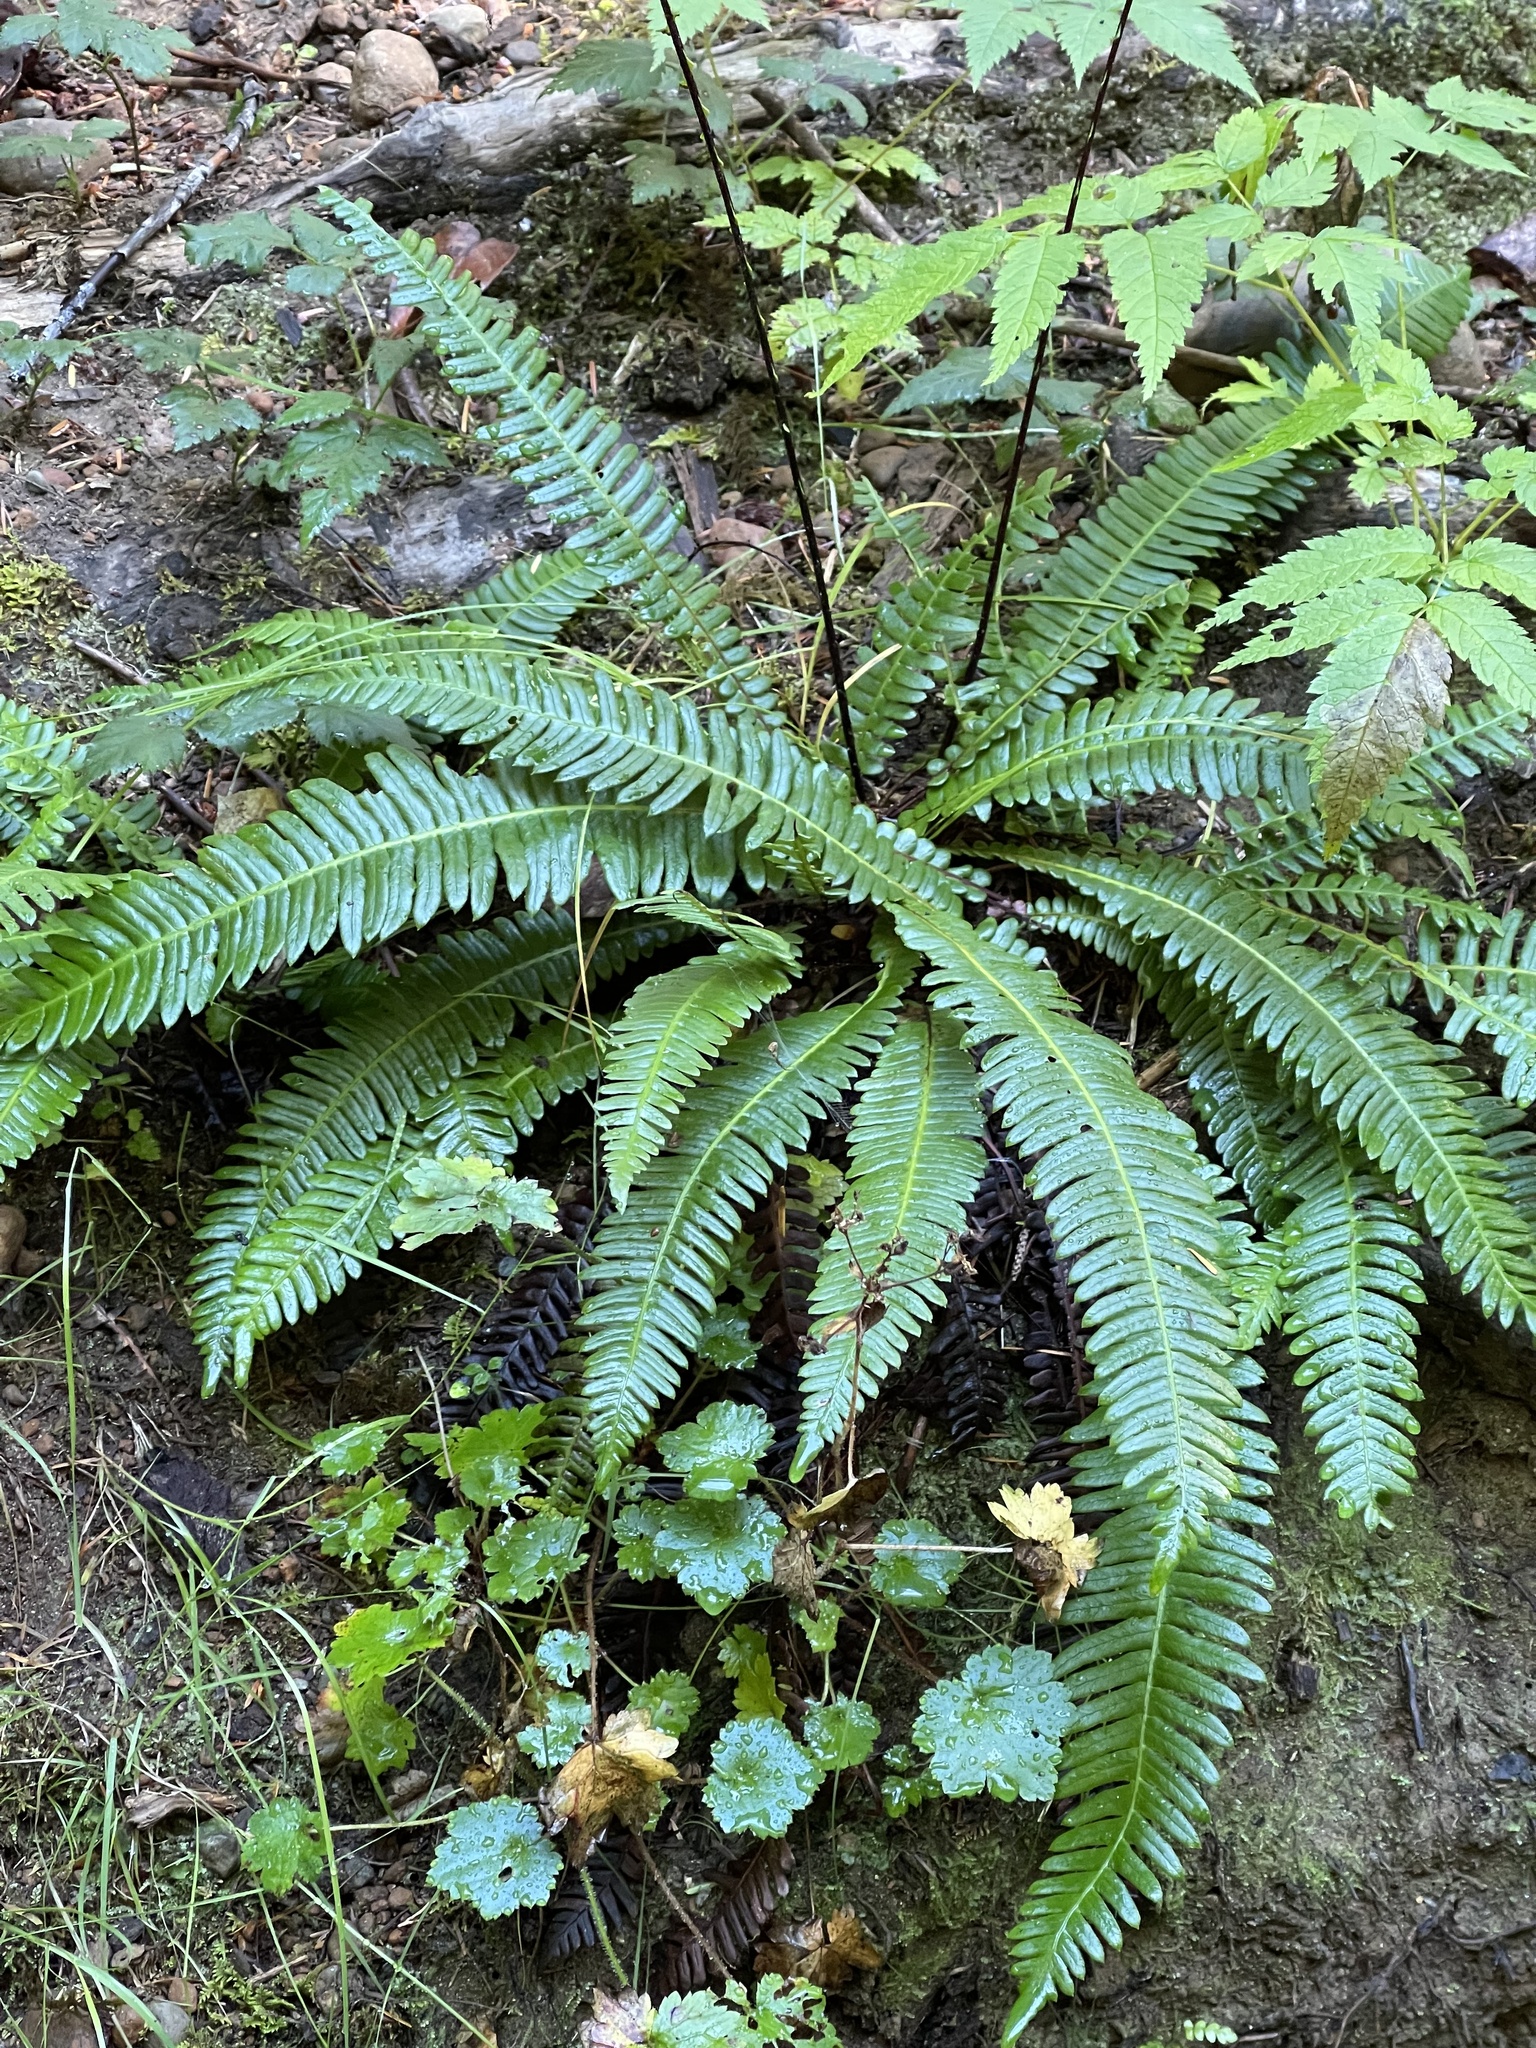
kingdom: Plantae
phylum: Tracheophyta
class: Polypodiopsida
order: Polypodiales
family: Blechnaceae
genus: Struthiopteris
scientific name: Struthiopteris spicant
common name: Deer fern
